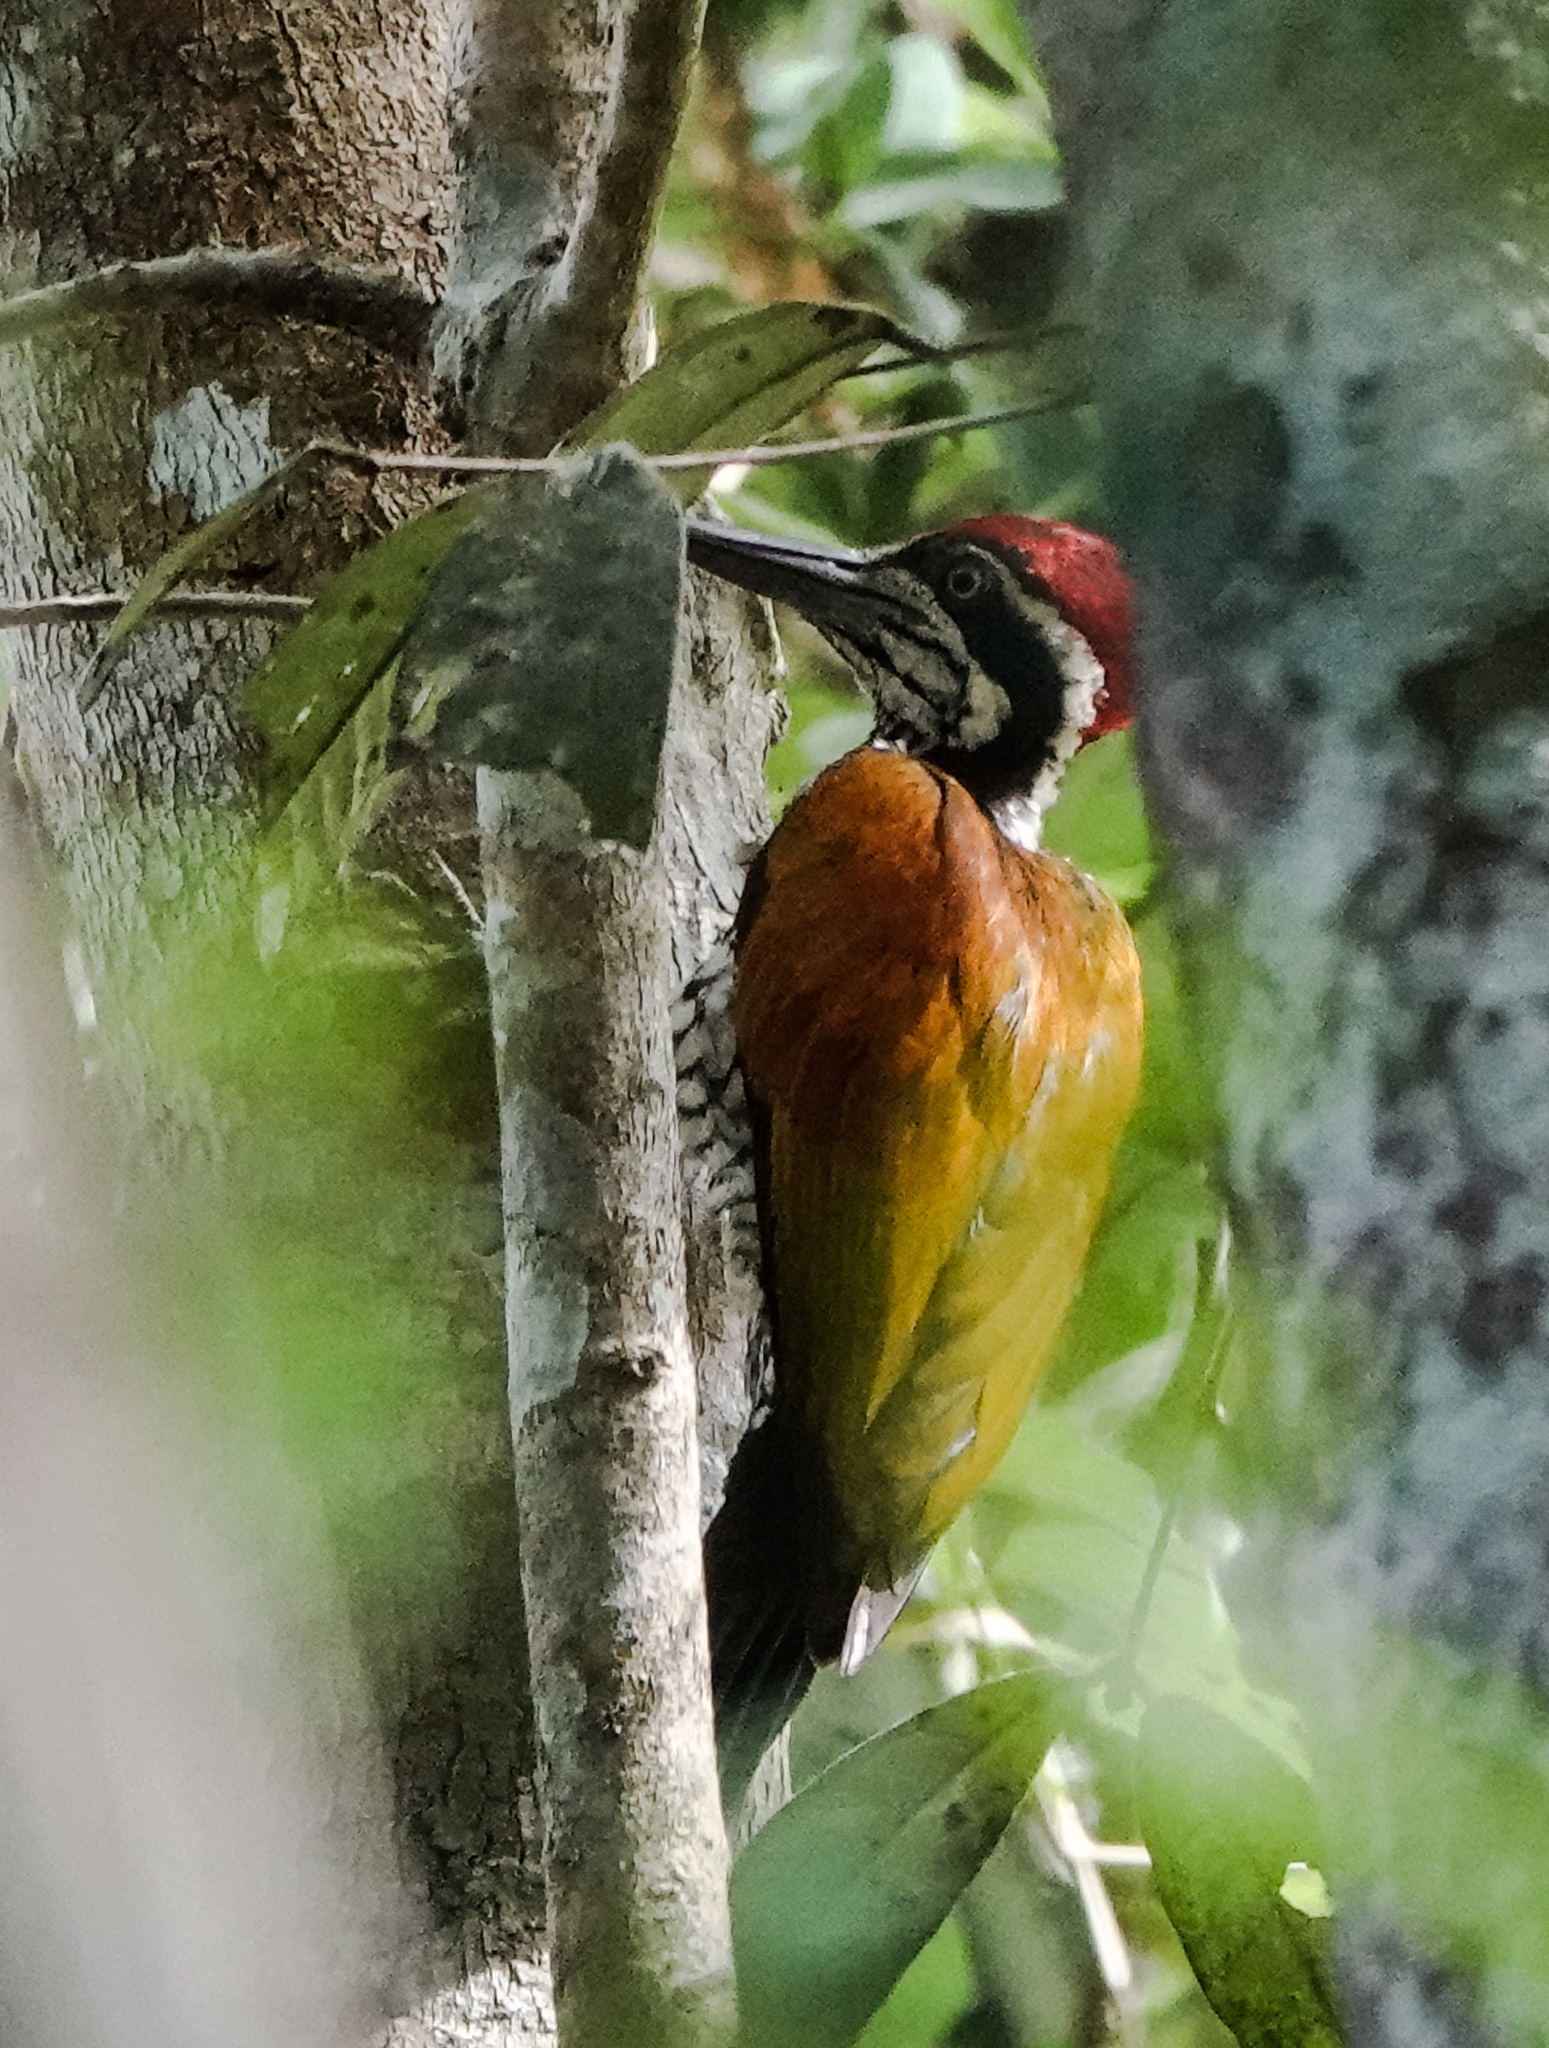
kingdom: Animalia
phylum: Chordata
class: Aves
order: Piciformes
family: Picidae
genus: Chrysocolaptes
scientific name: Chrysocolaptes guttacristatus
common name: Greater flameback
